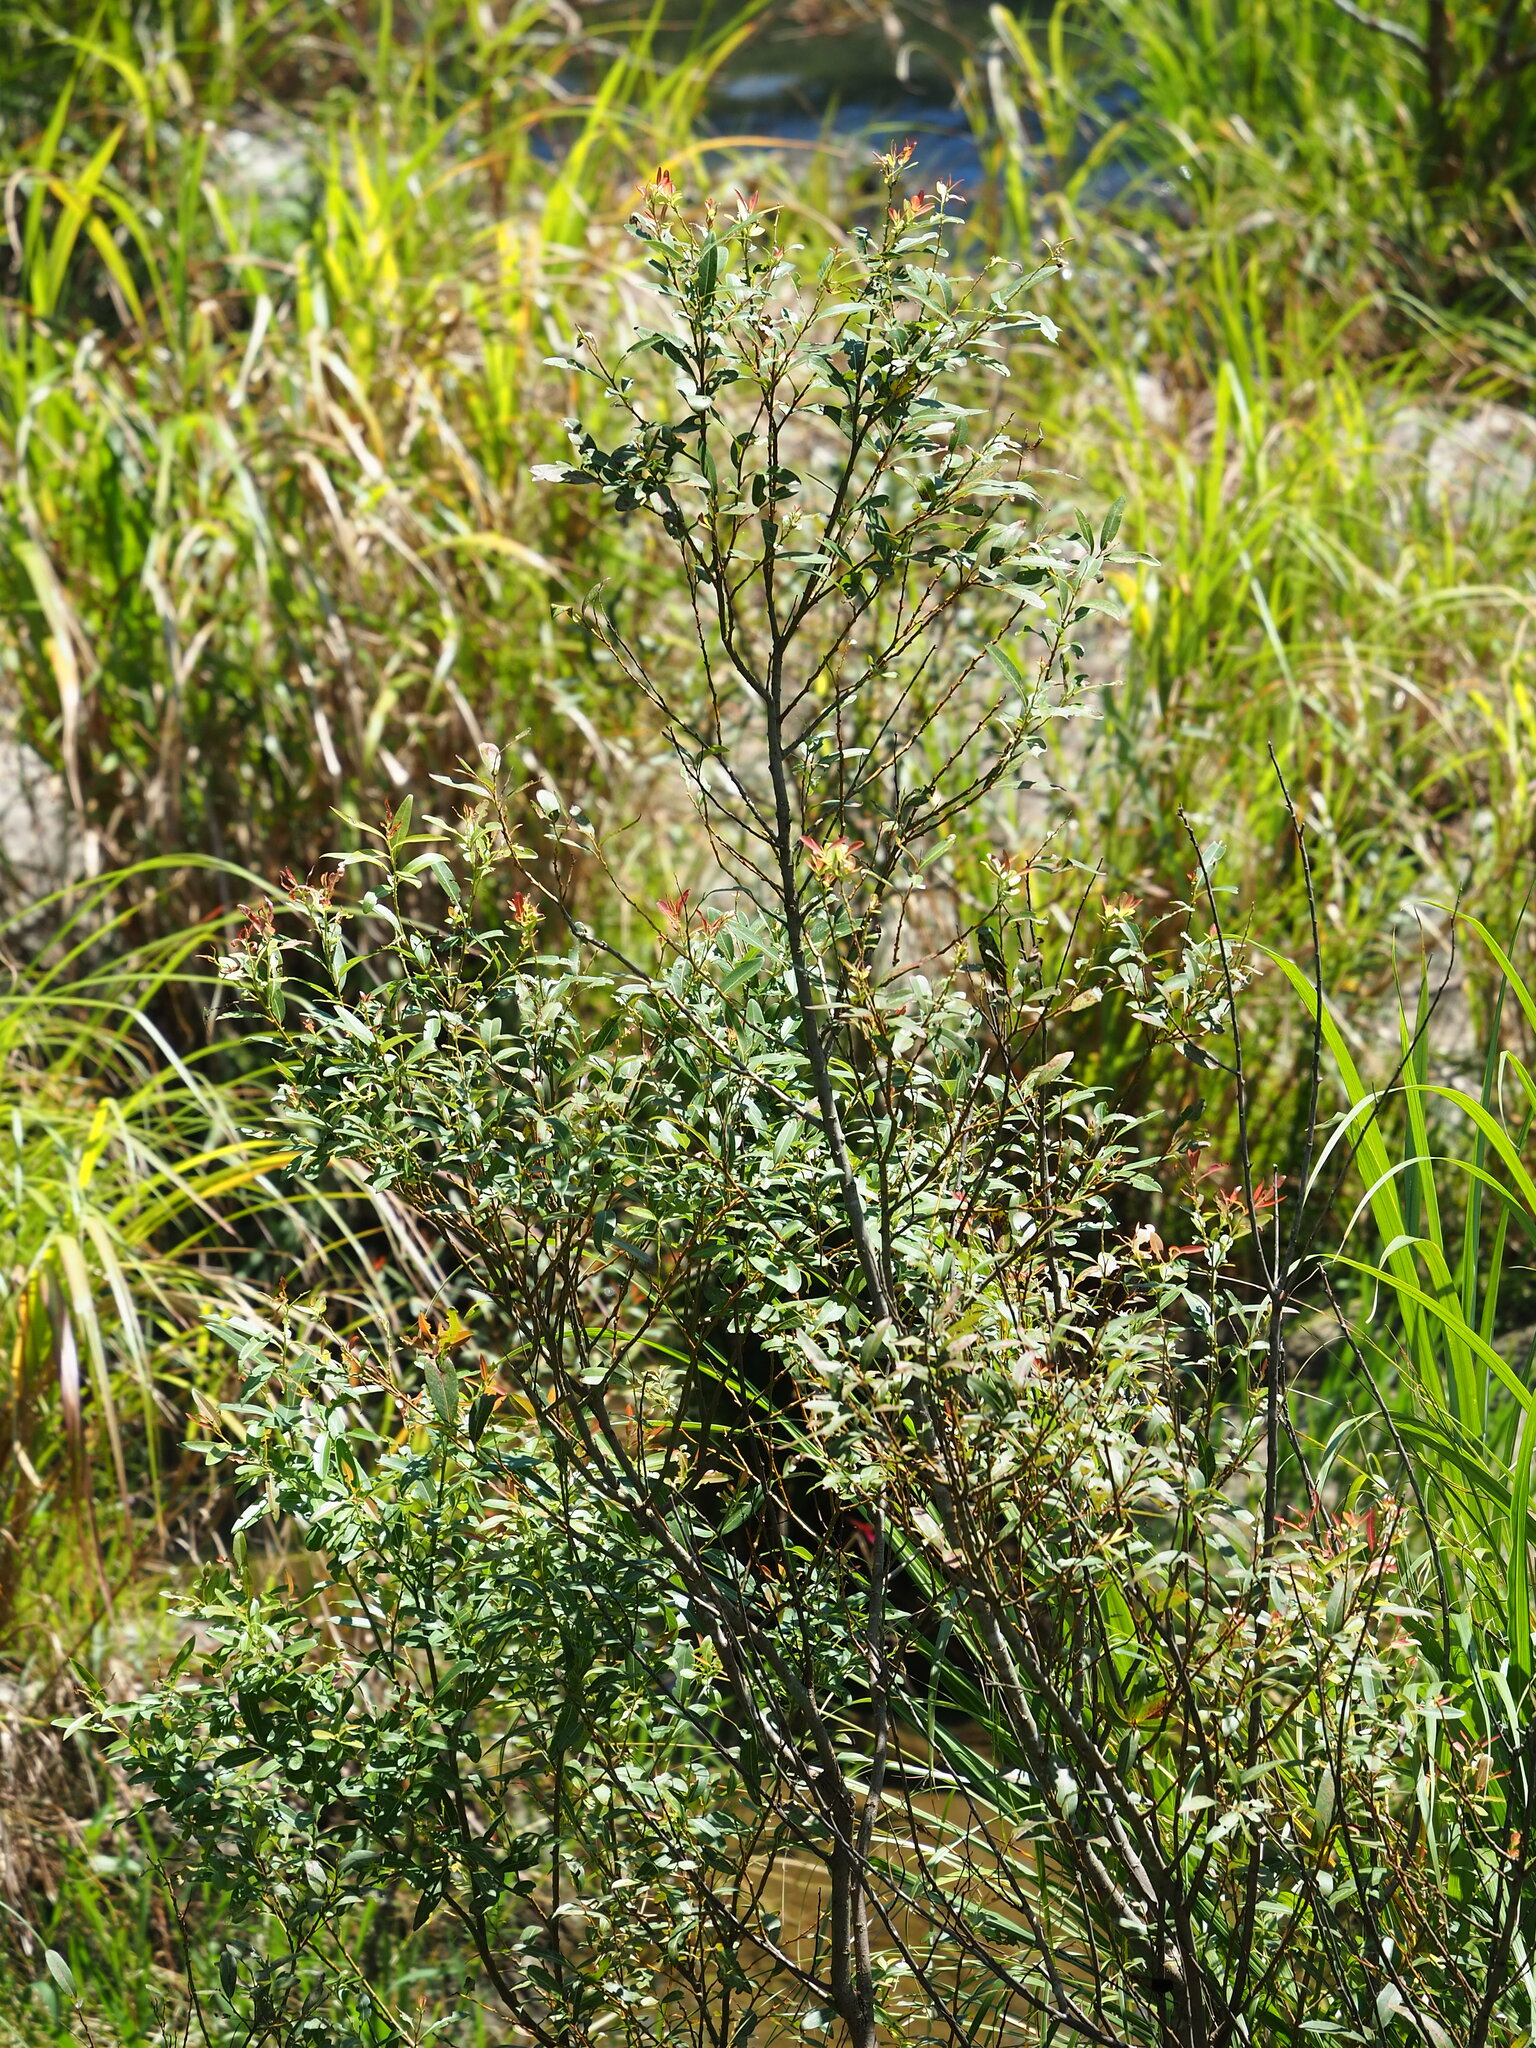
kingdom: Plantae
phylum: Tracheophyta
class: Magnoliopsida
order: Malpighiales
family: Salicaceae
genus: Salix
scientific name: Salix mesnyi
